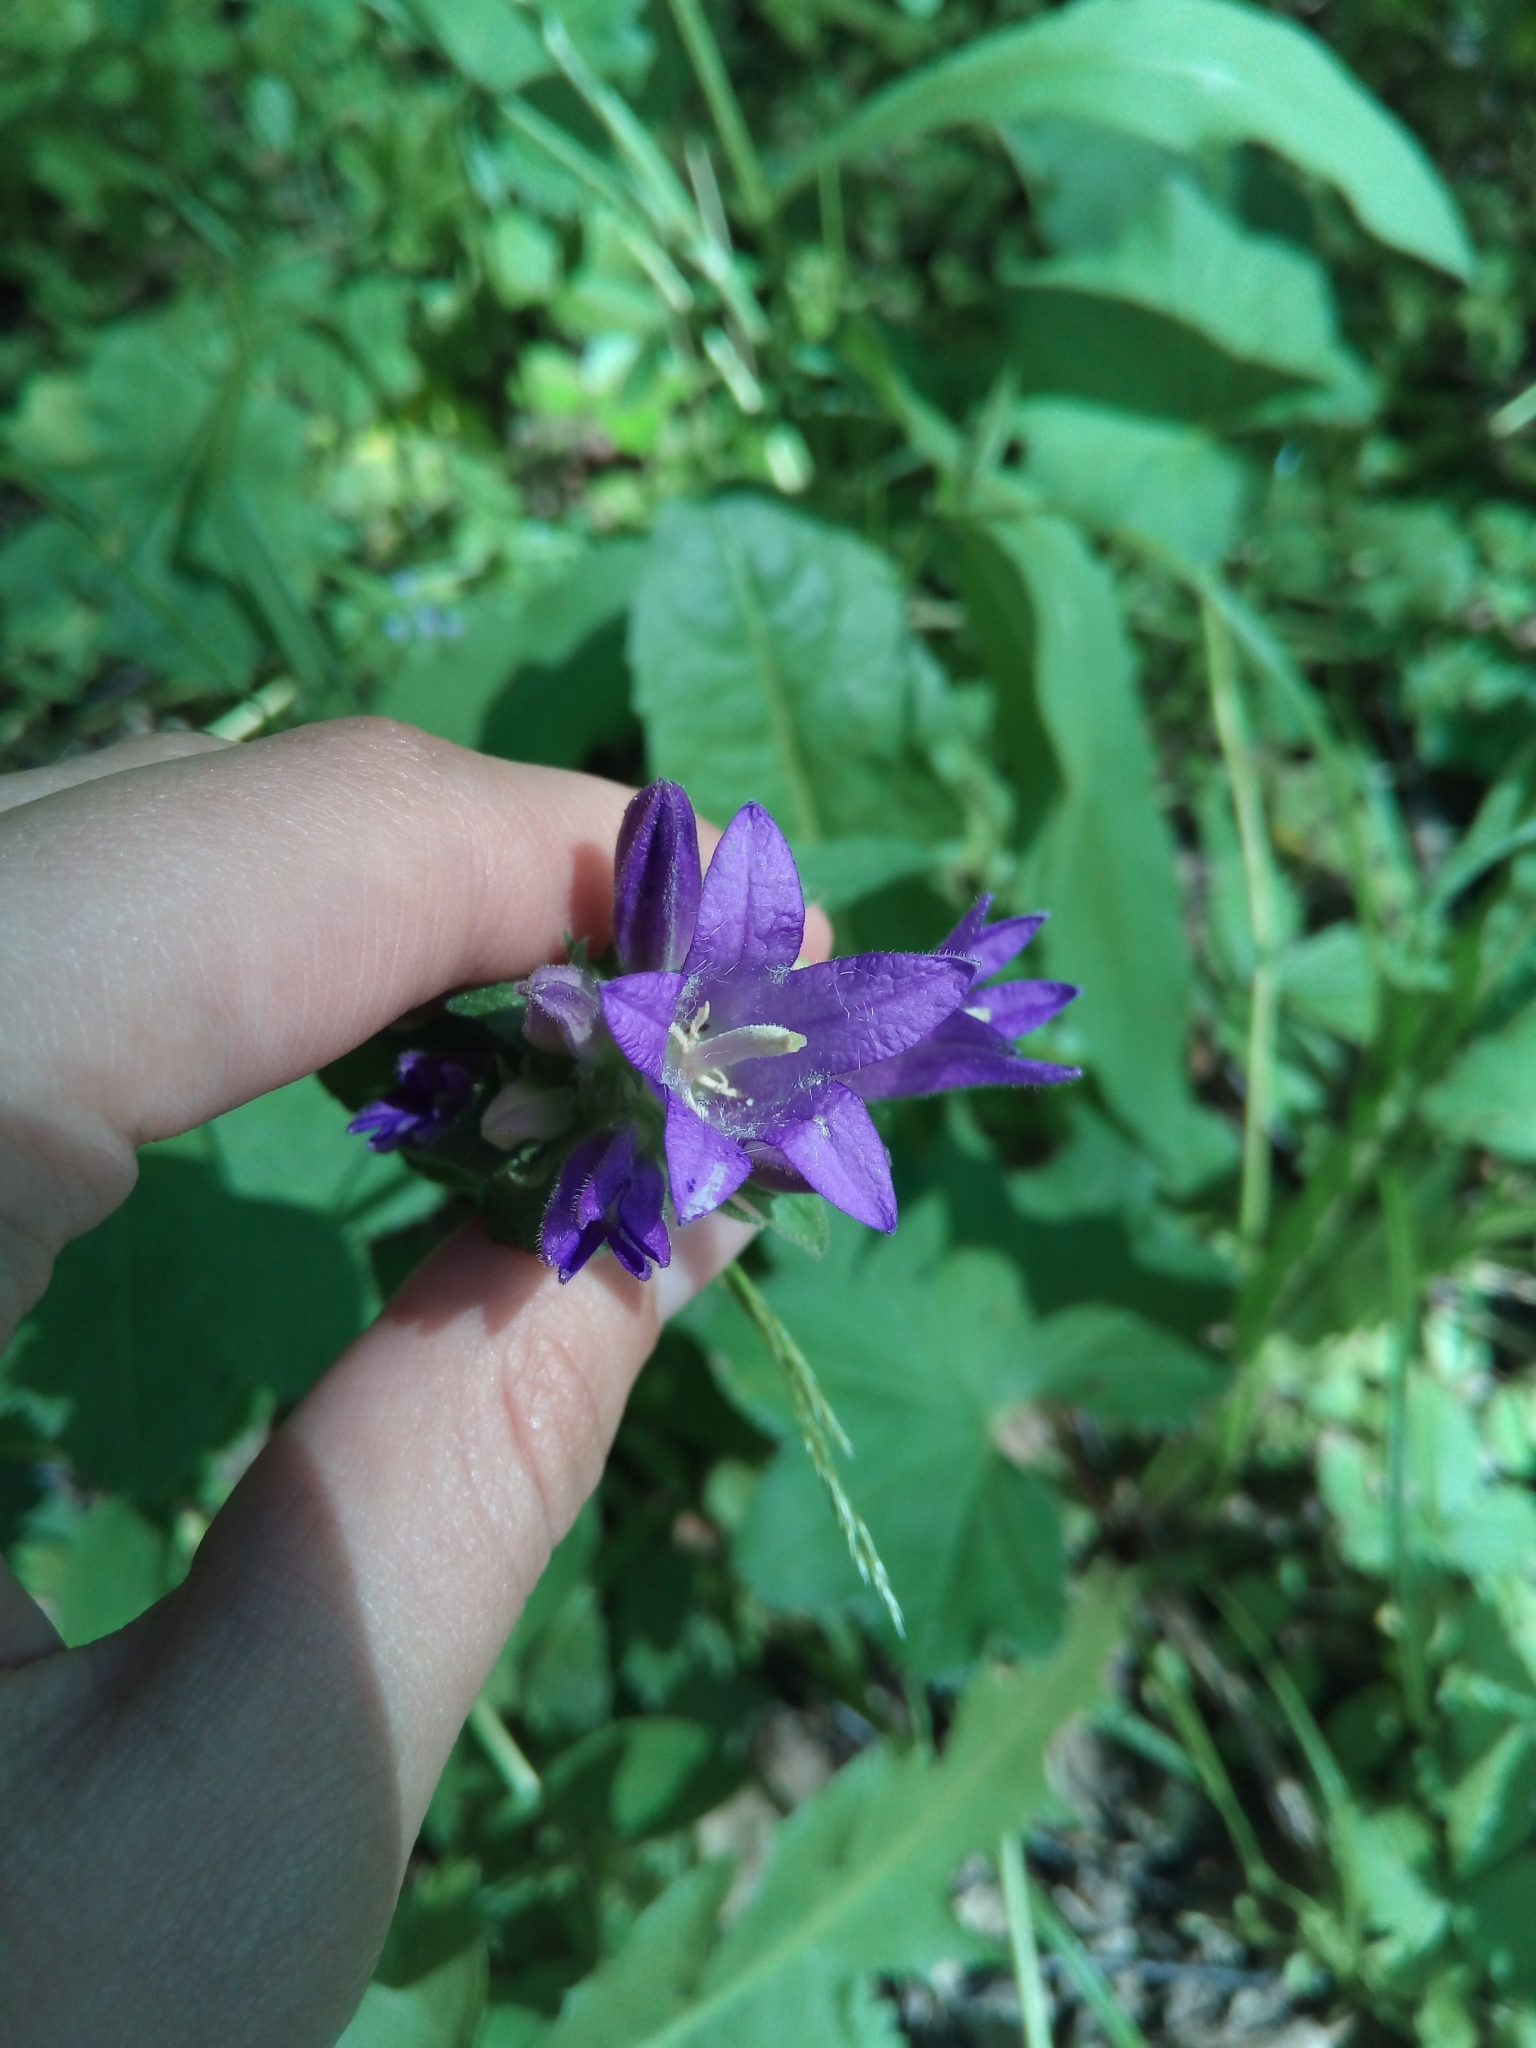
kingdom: Plantae
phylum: Tracheophyta
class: Magnoliopsida
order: Asterales
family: Campanulaceae
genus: Campanula
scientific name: Campanula glomerata
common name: Clustered bellflower
